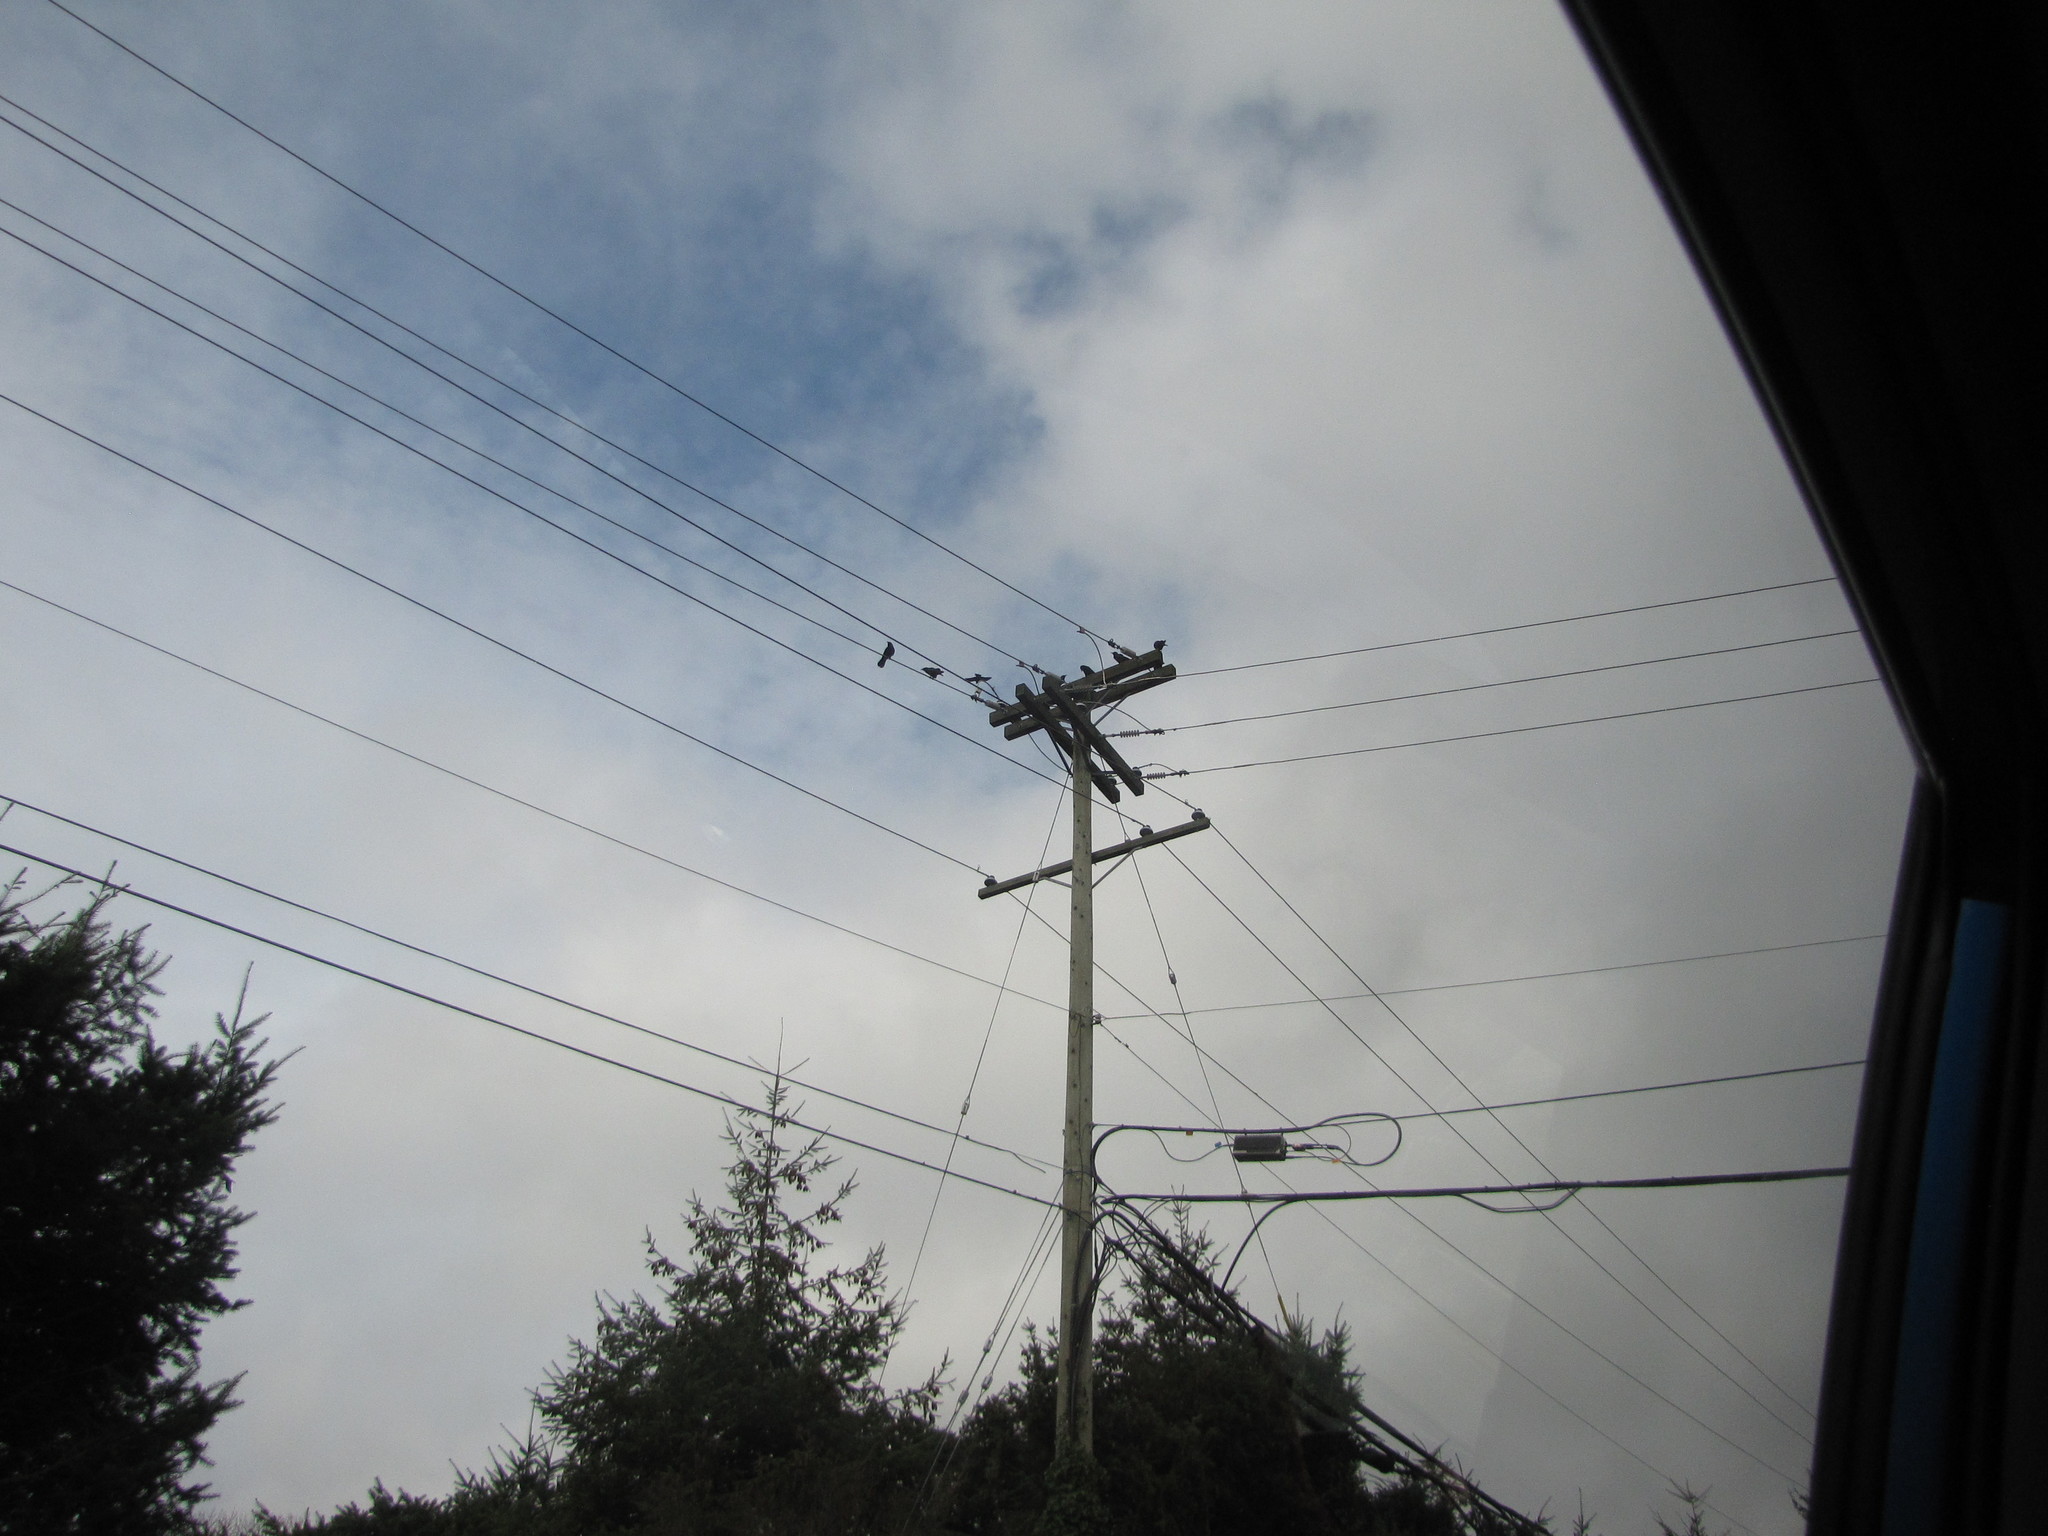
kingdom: Animalia
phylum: Chordata
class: Aves
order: Passeriformes
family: Corvidae
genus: Corvus
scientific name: Corvus brachyrhynchos
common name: American crow
